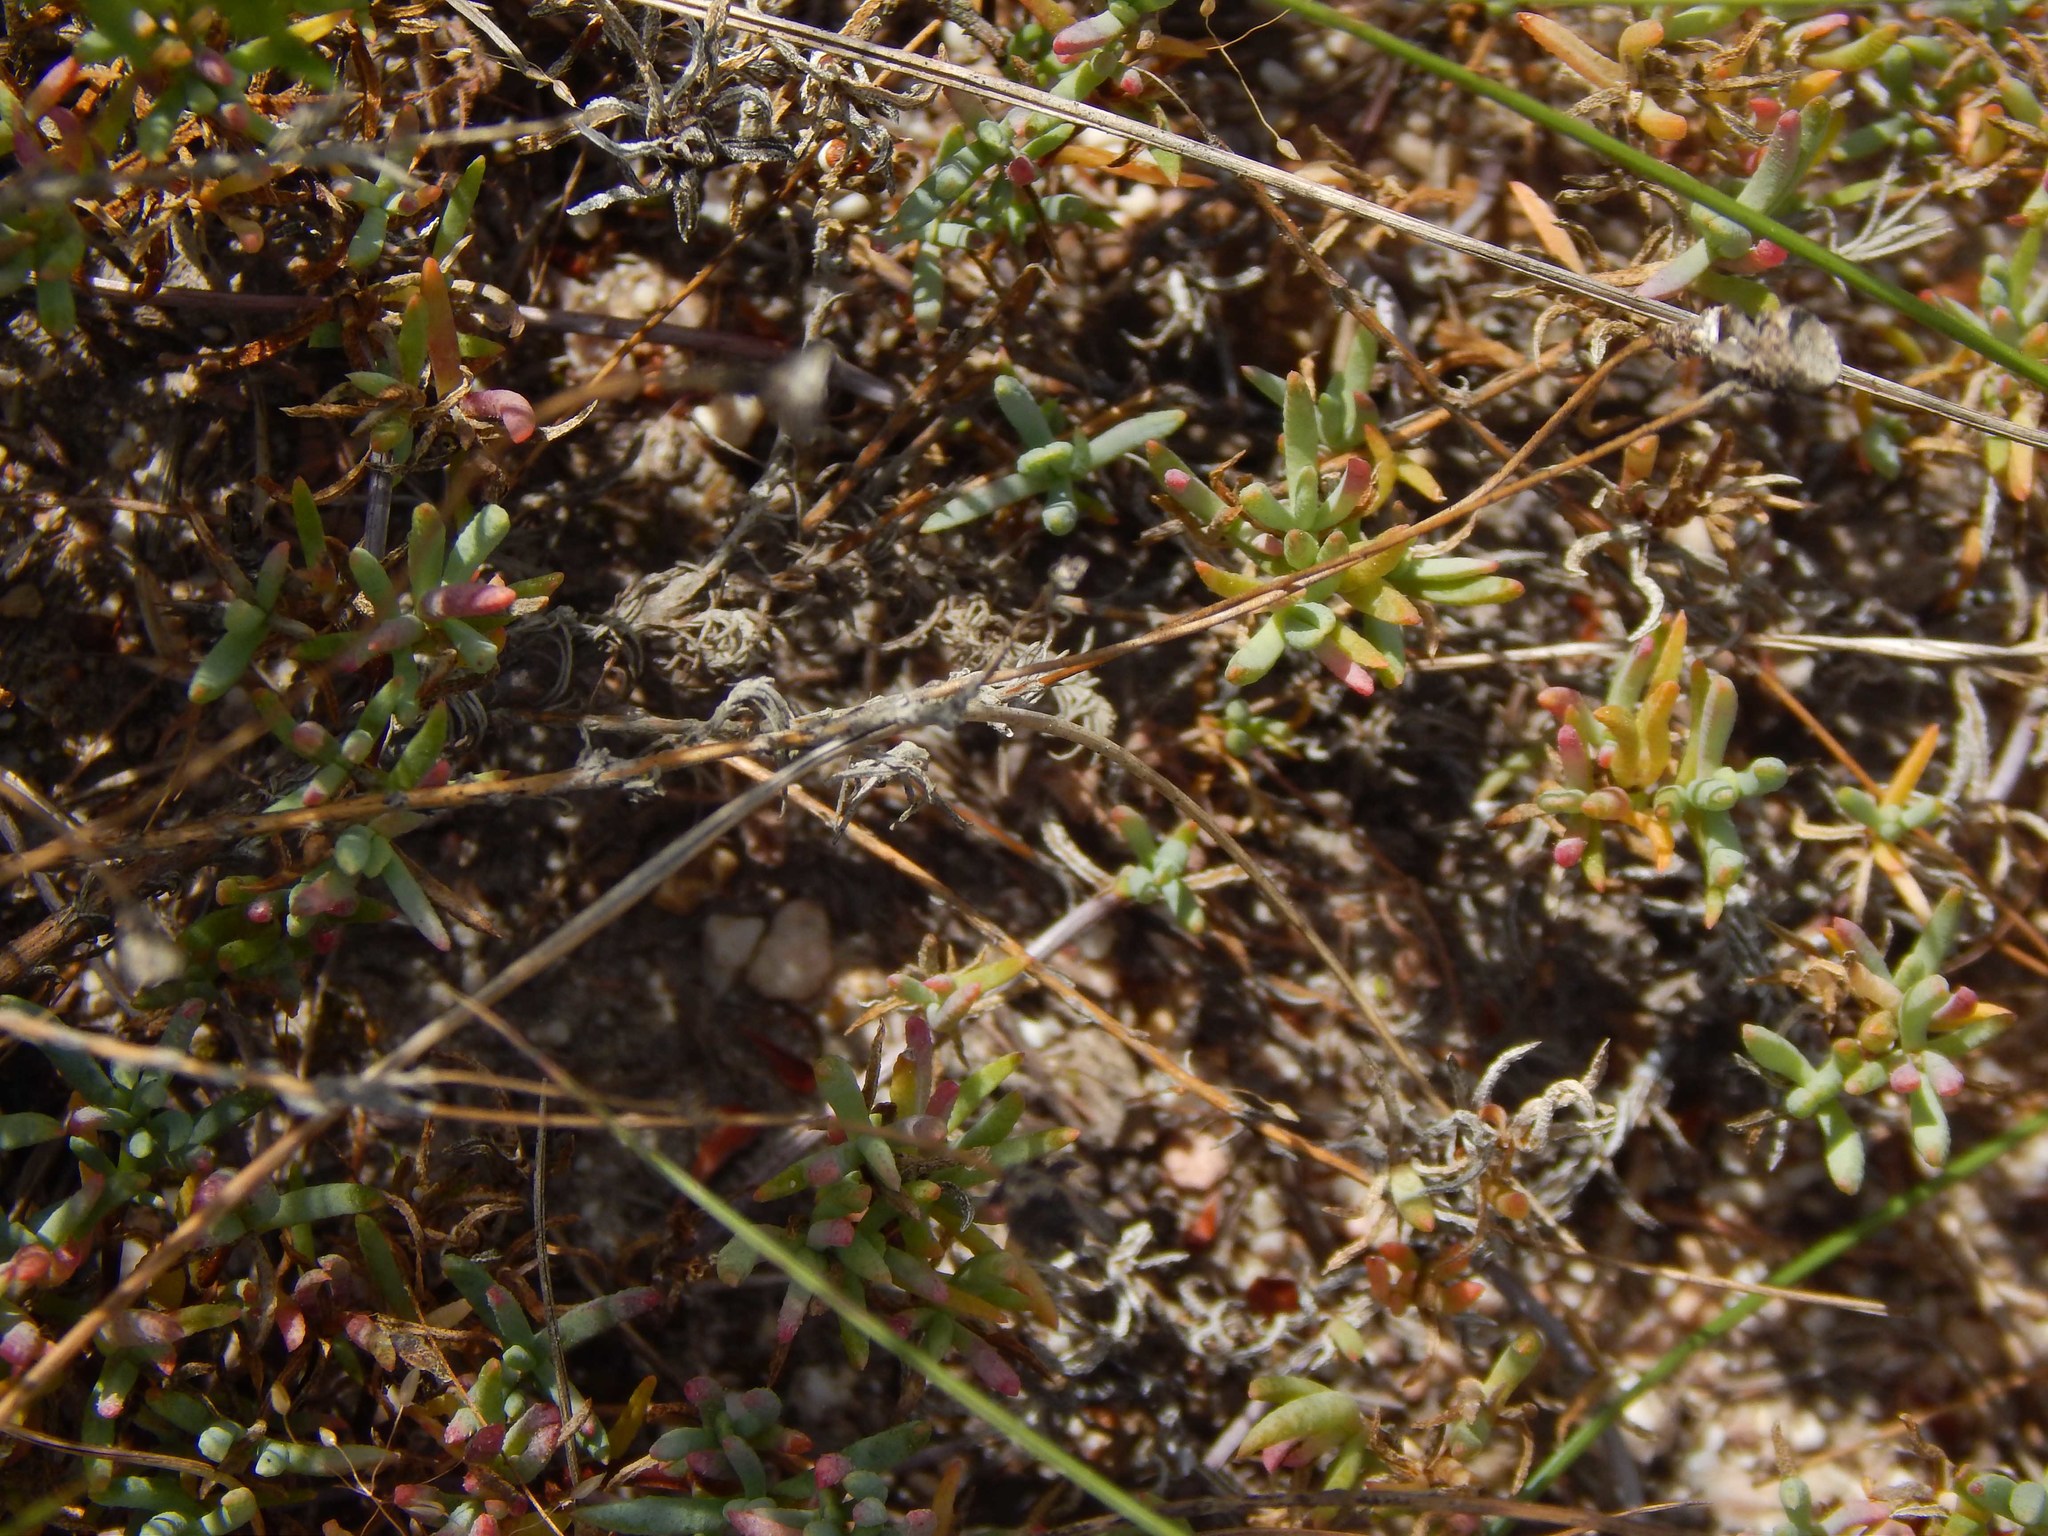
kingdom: Plantae
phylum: Tracheophyta
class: Magnoliopsida
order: Caryophyllales
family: Aizoaceae
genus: Lampranthus
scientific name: Lampranthus debilis
